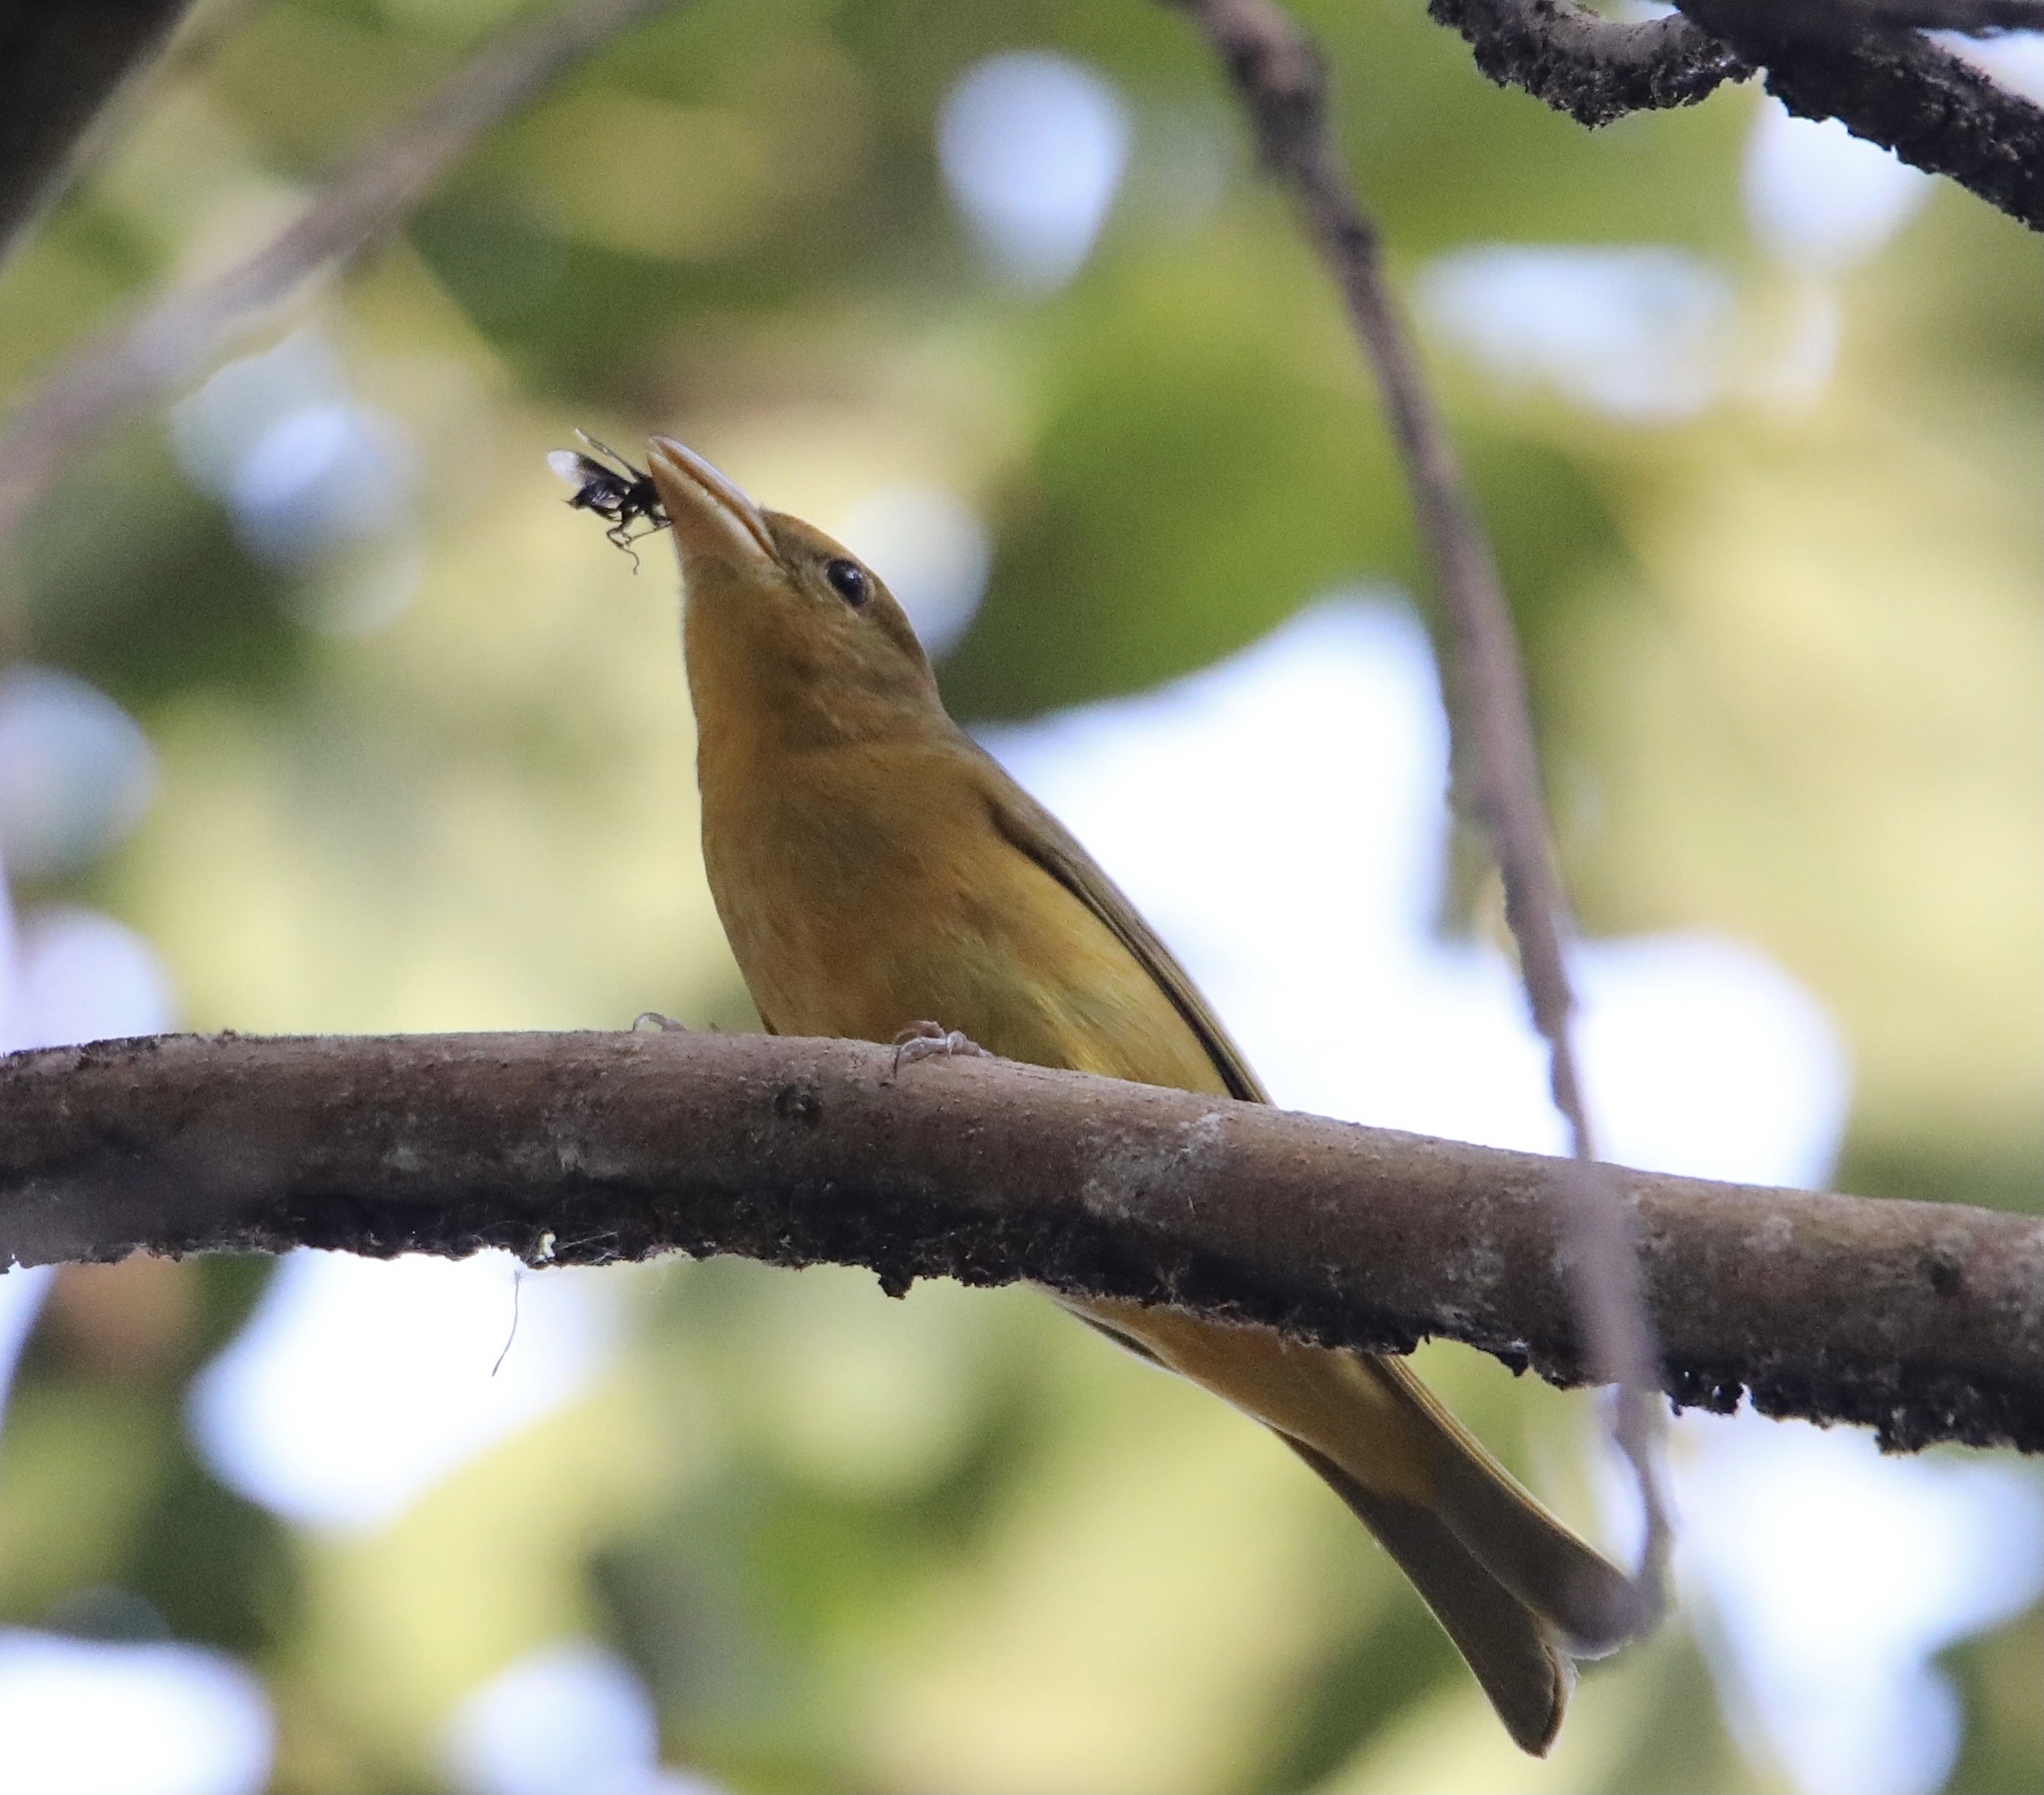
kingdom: Animalia
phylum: Chordata
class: Aves
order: Passeriformes
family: Cardinalidae
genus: Piranga
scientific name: Piranga rubra
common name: Summer tanager
